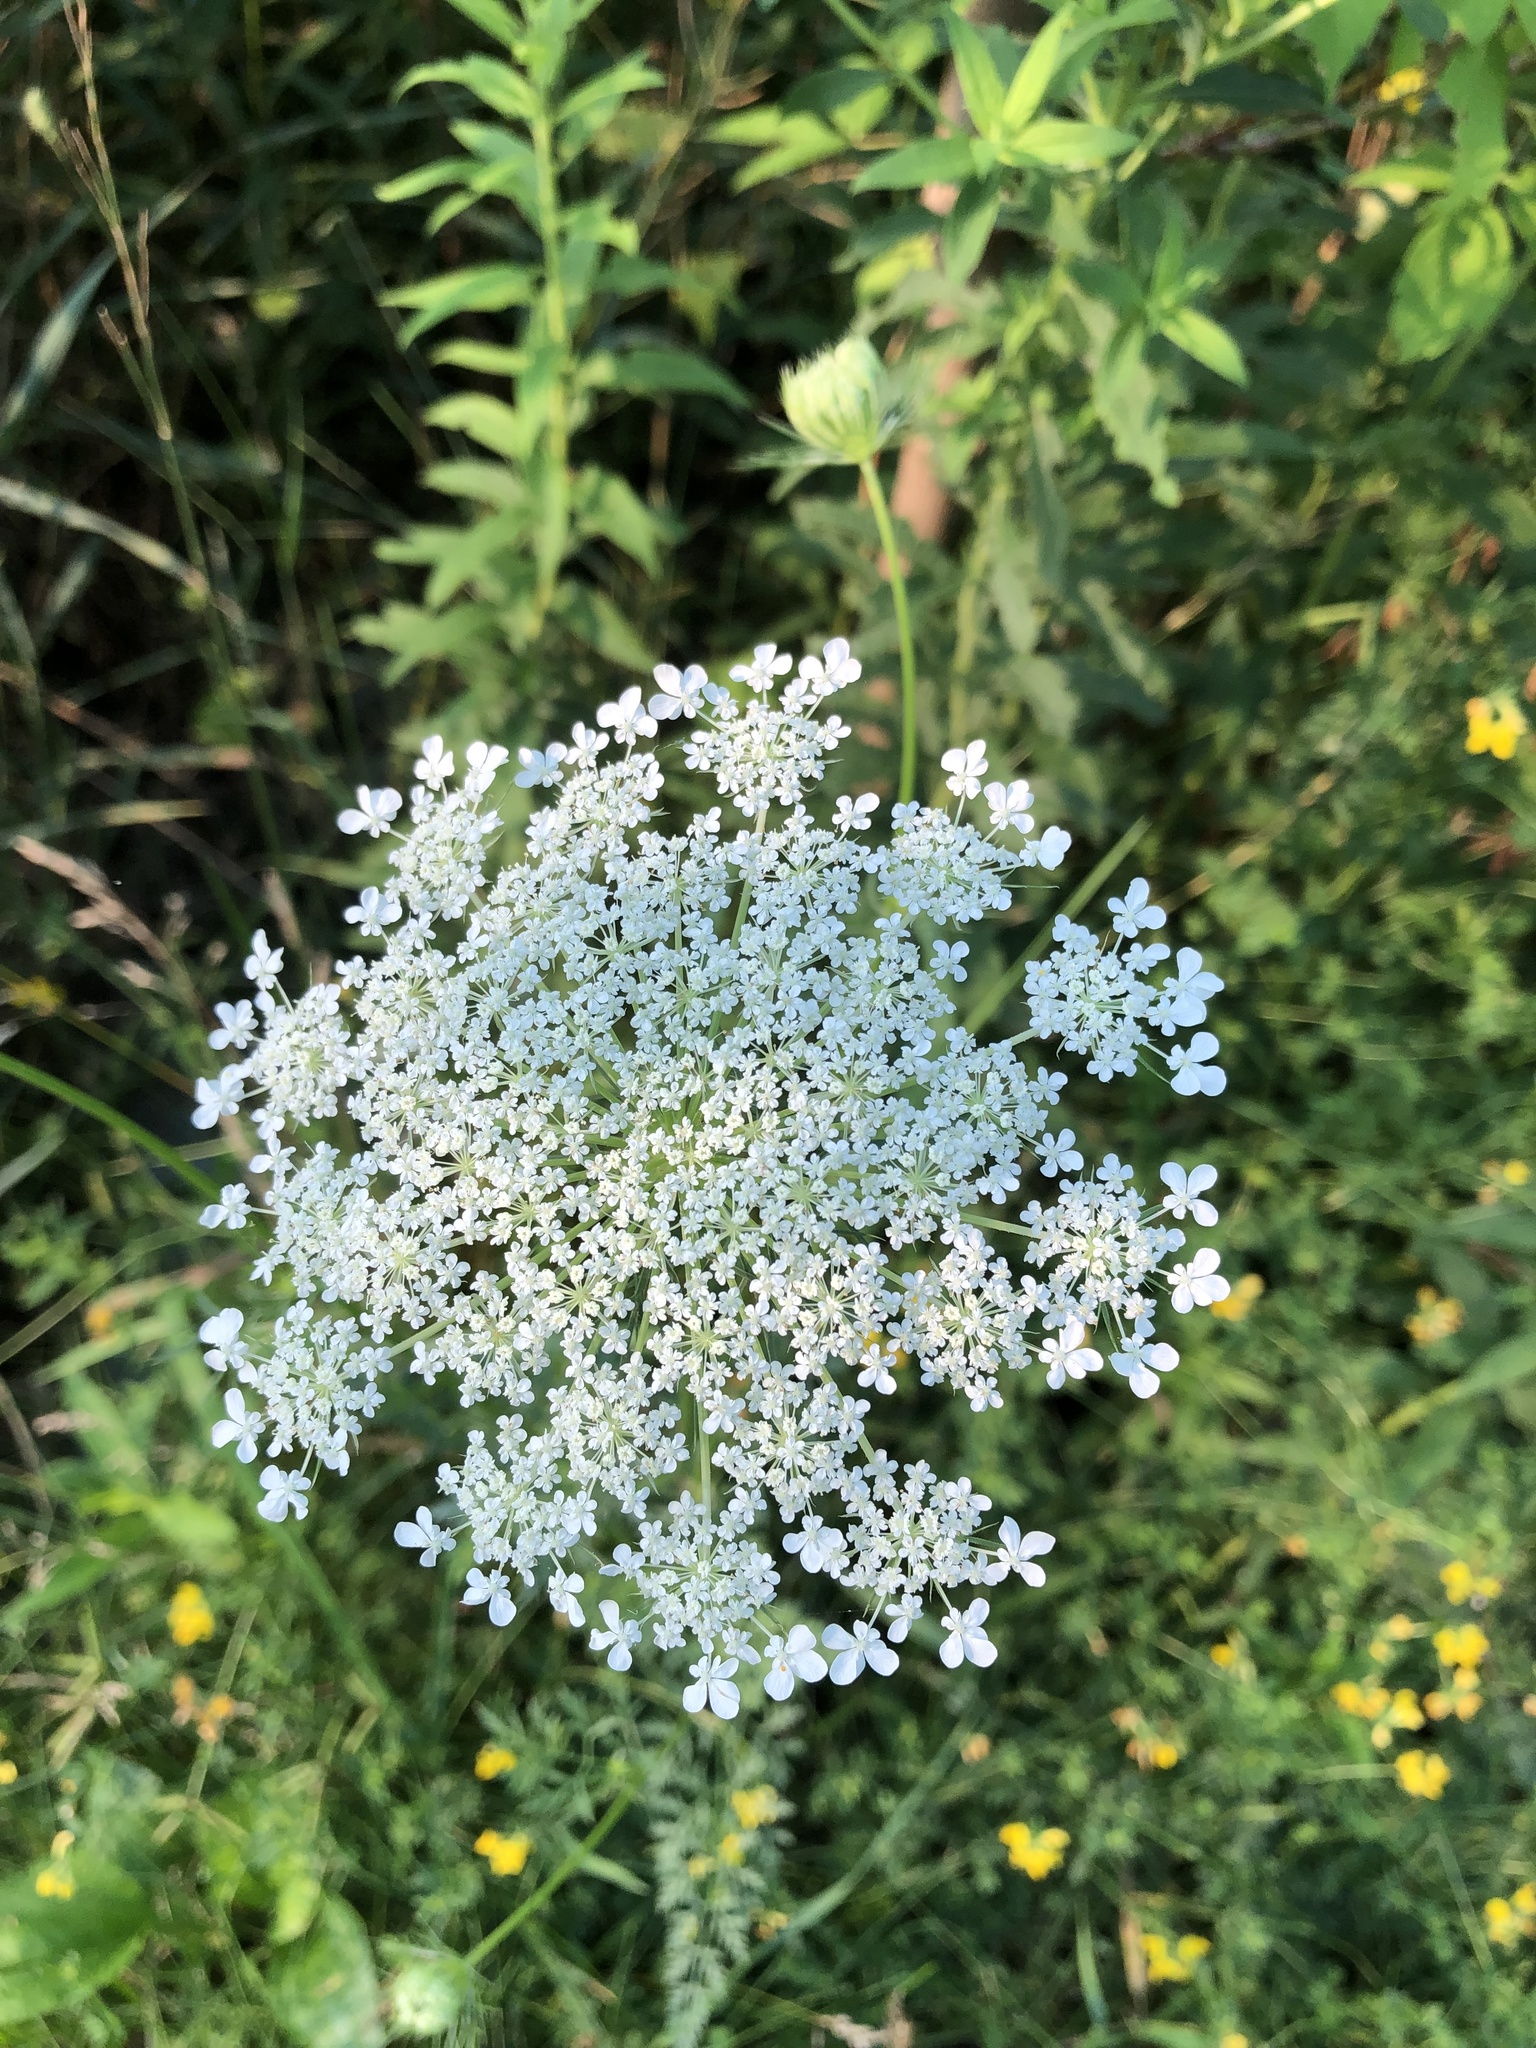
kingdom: Plantae
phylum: Tracheophyta
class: Magnoliopsida
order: Apiales
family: Apiaceae
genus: Daucus
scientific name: Daucus carota
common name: Wild carrot
